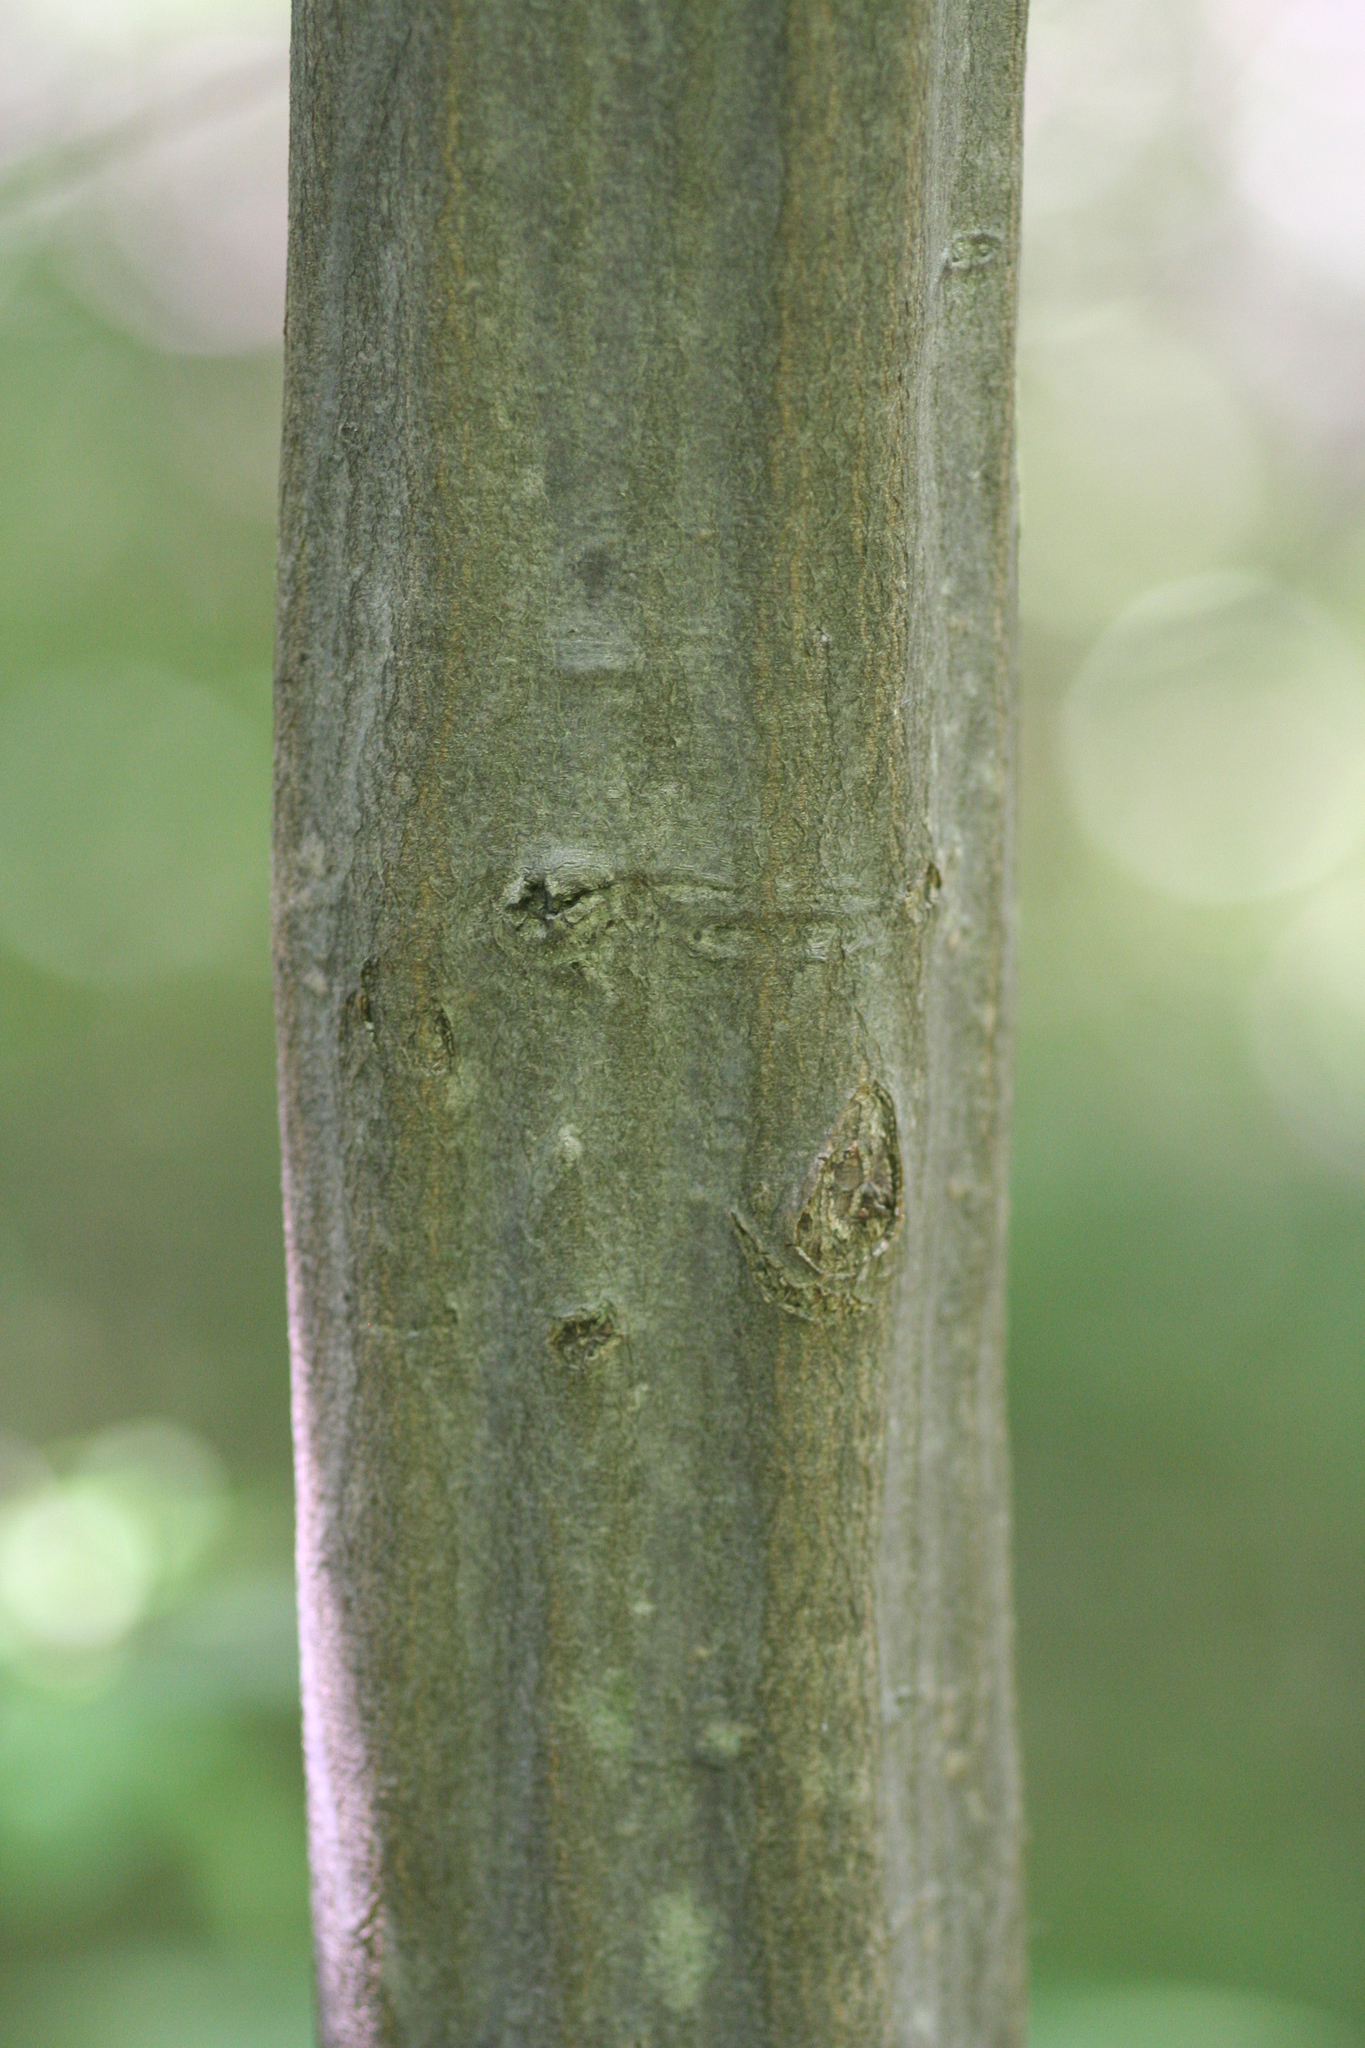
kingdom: Plantae
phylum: Tracheophyta
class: Magnoliopsida
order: Fagales
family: Betulaceae
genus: Carpinus
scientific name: Carpinus caroliniana
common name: American hornbeam
